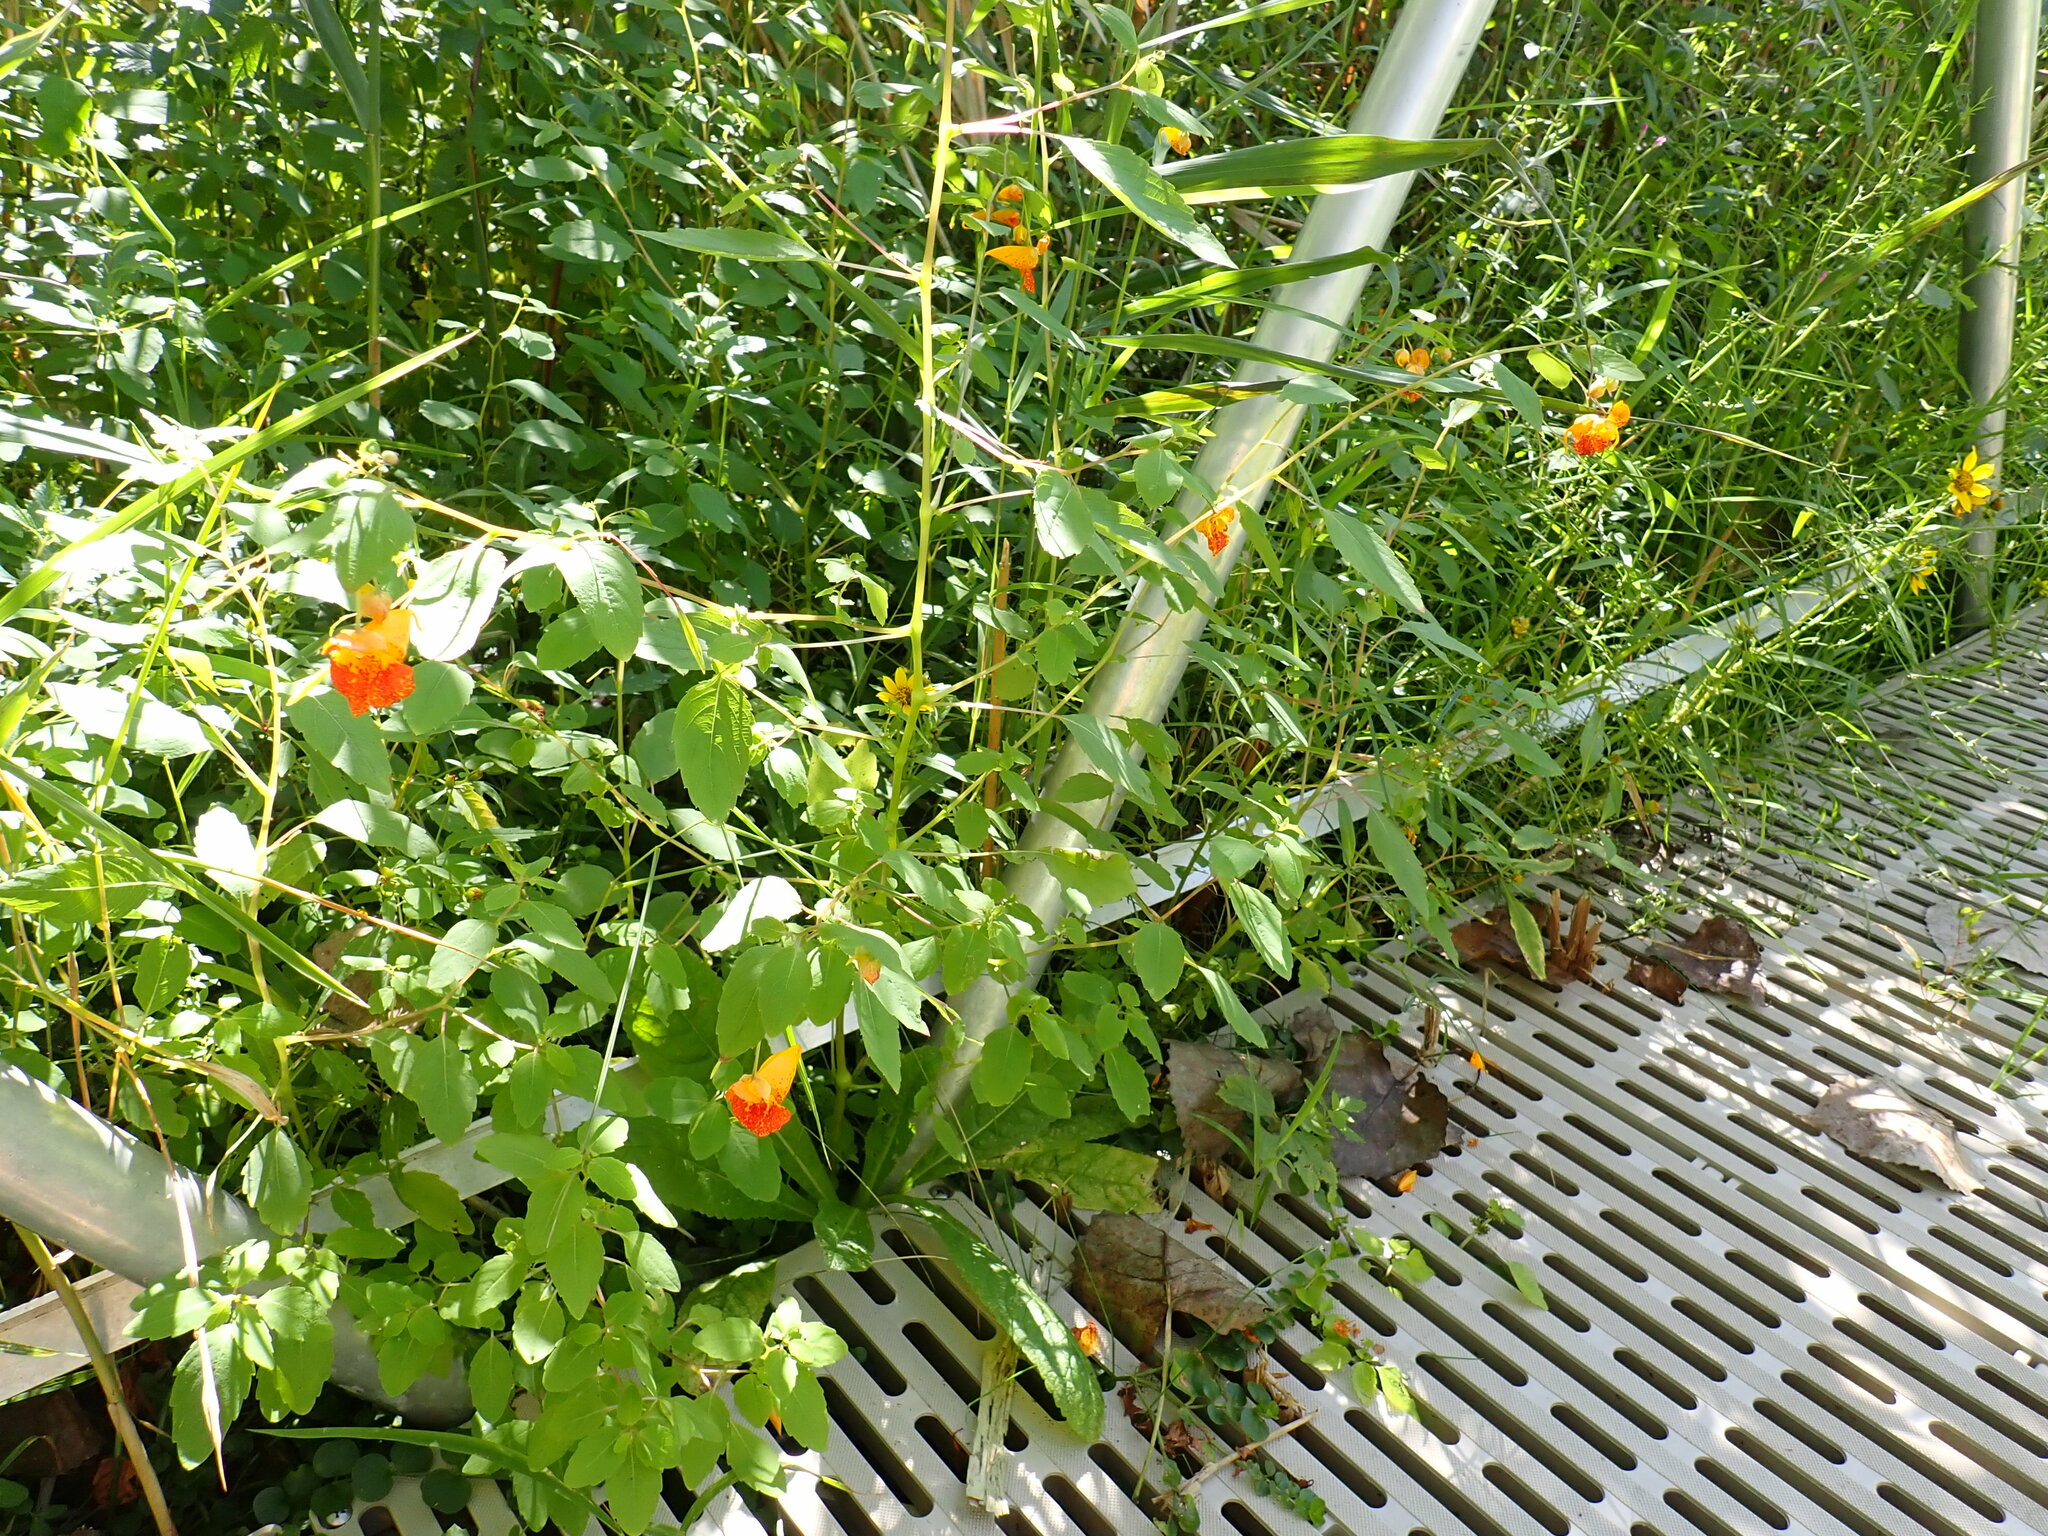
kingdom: Plantae
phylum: Tracheophyta
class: Magnoliopsida
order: Ericales
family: Balsaminaceae
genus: Impatiens
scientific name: Impatiens capensis
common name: Orange balsam
